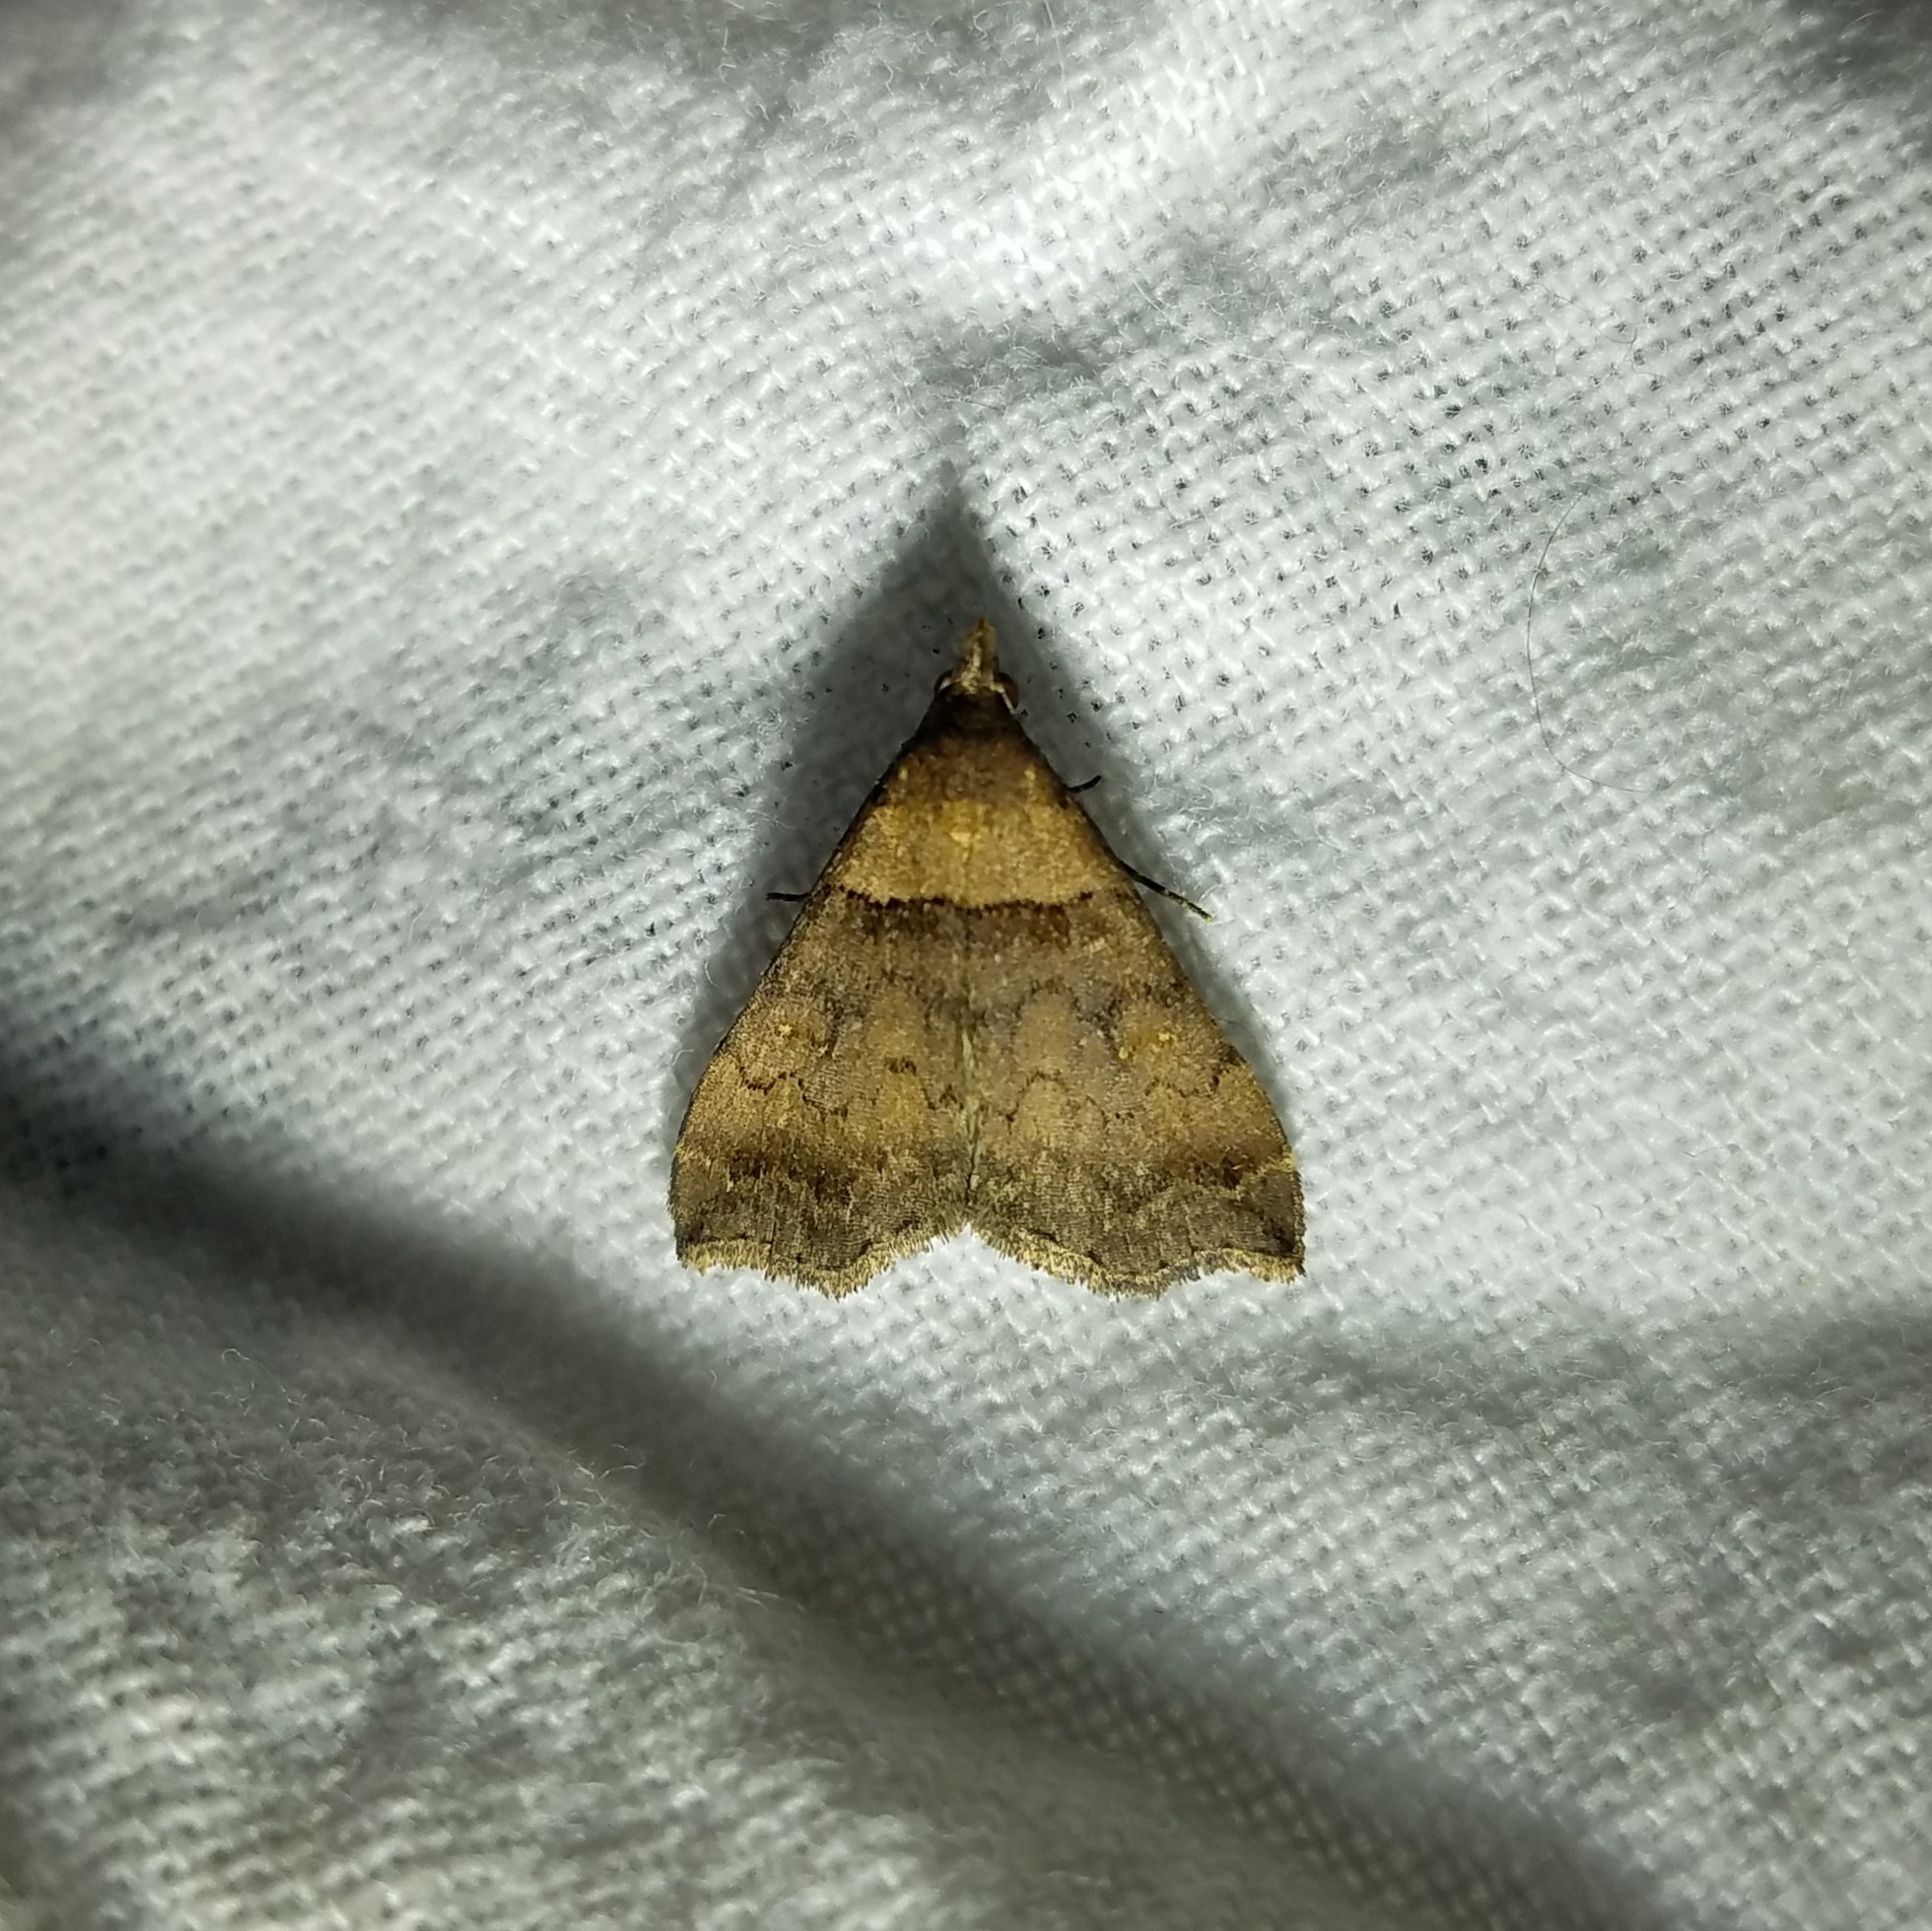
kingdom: Animalia
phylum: Arthropoda
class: Insecta
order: Lepidoptera
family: Erebidae
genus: Lascoria
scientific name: Lascoria ambigualis
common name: Ambiguous moth
